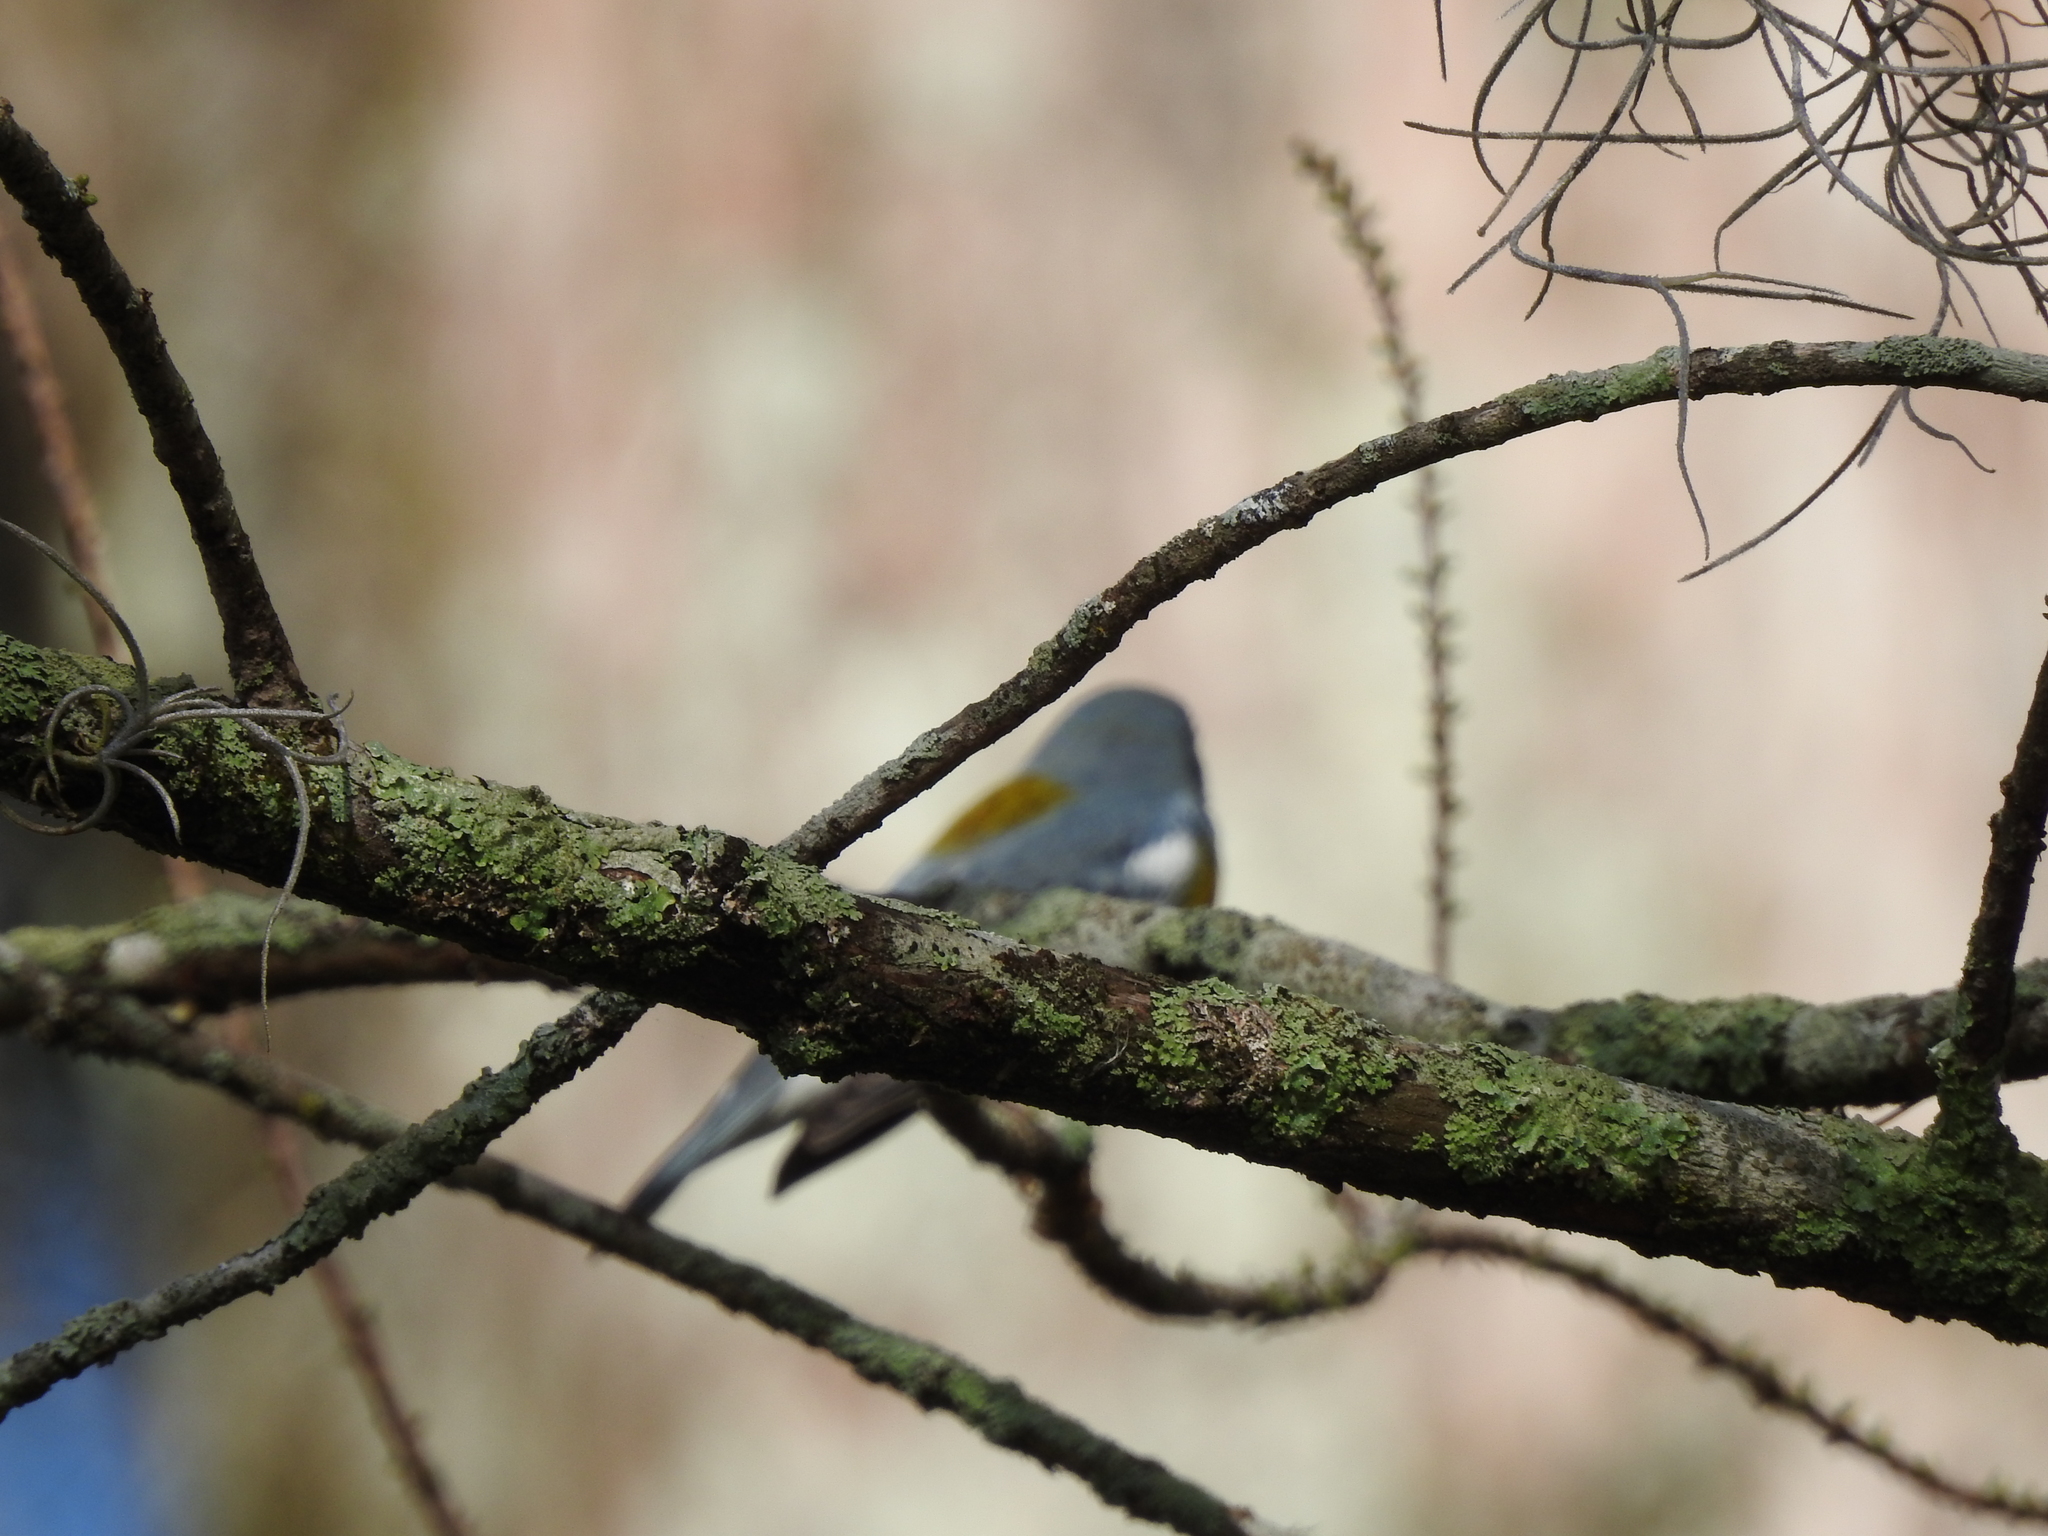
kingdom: Animalia
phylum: Chordata
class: Aves
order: Passeriformes
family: Parulidae
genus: Setophaga
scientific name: Setophaga americana
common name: Northern parula
